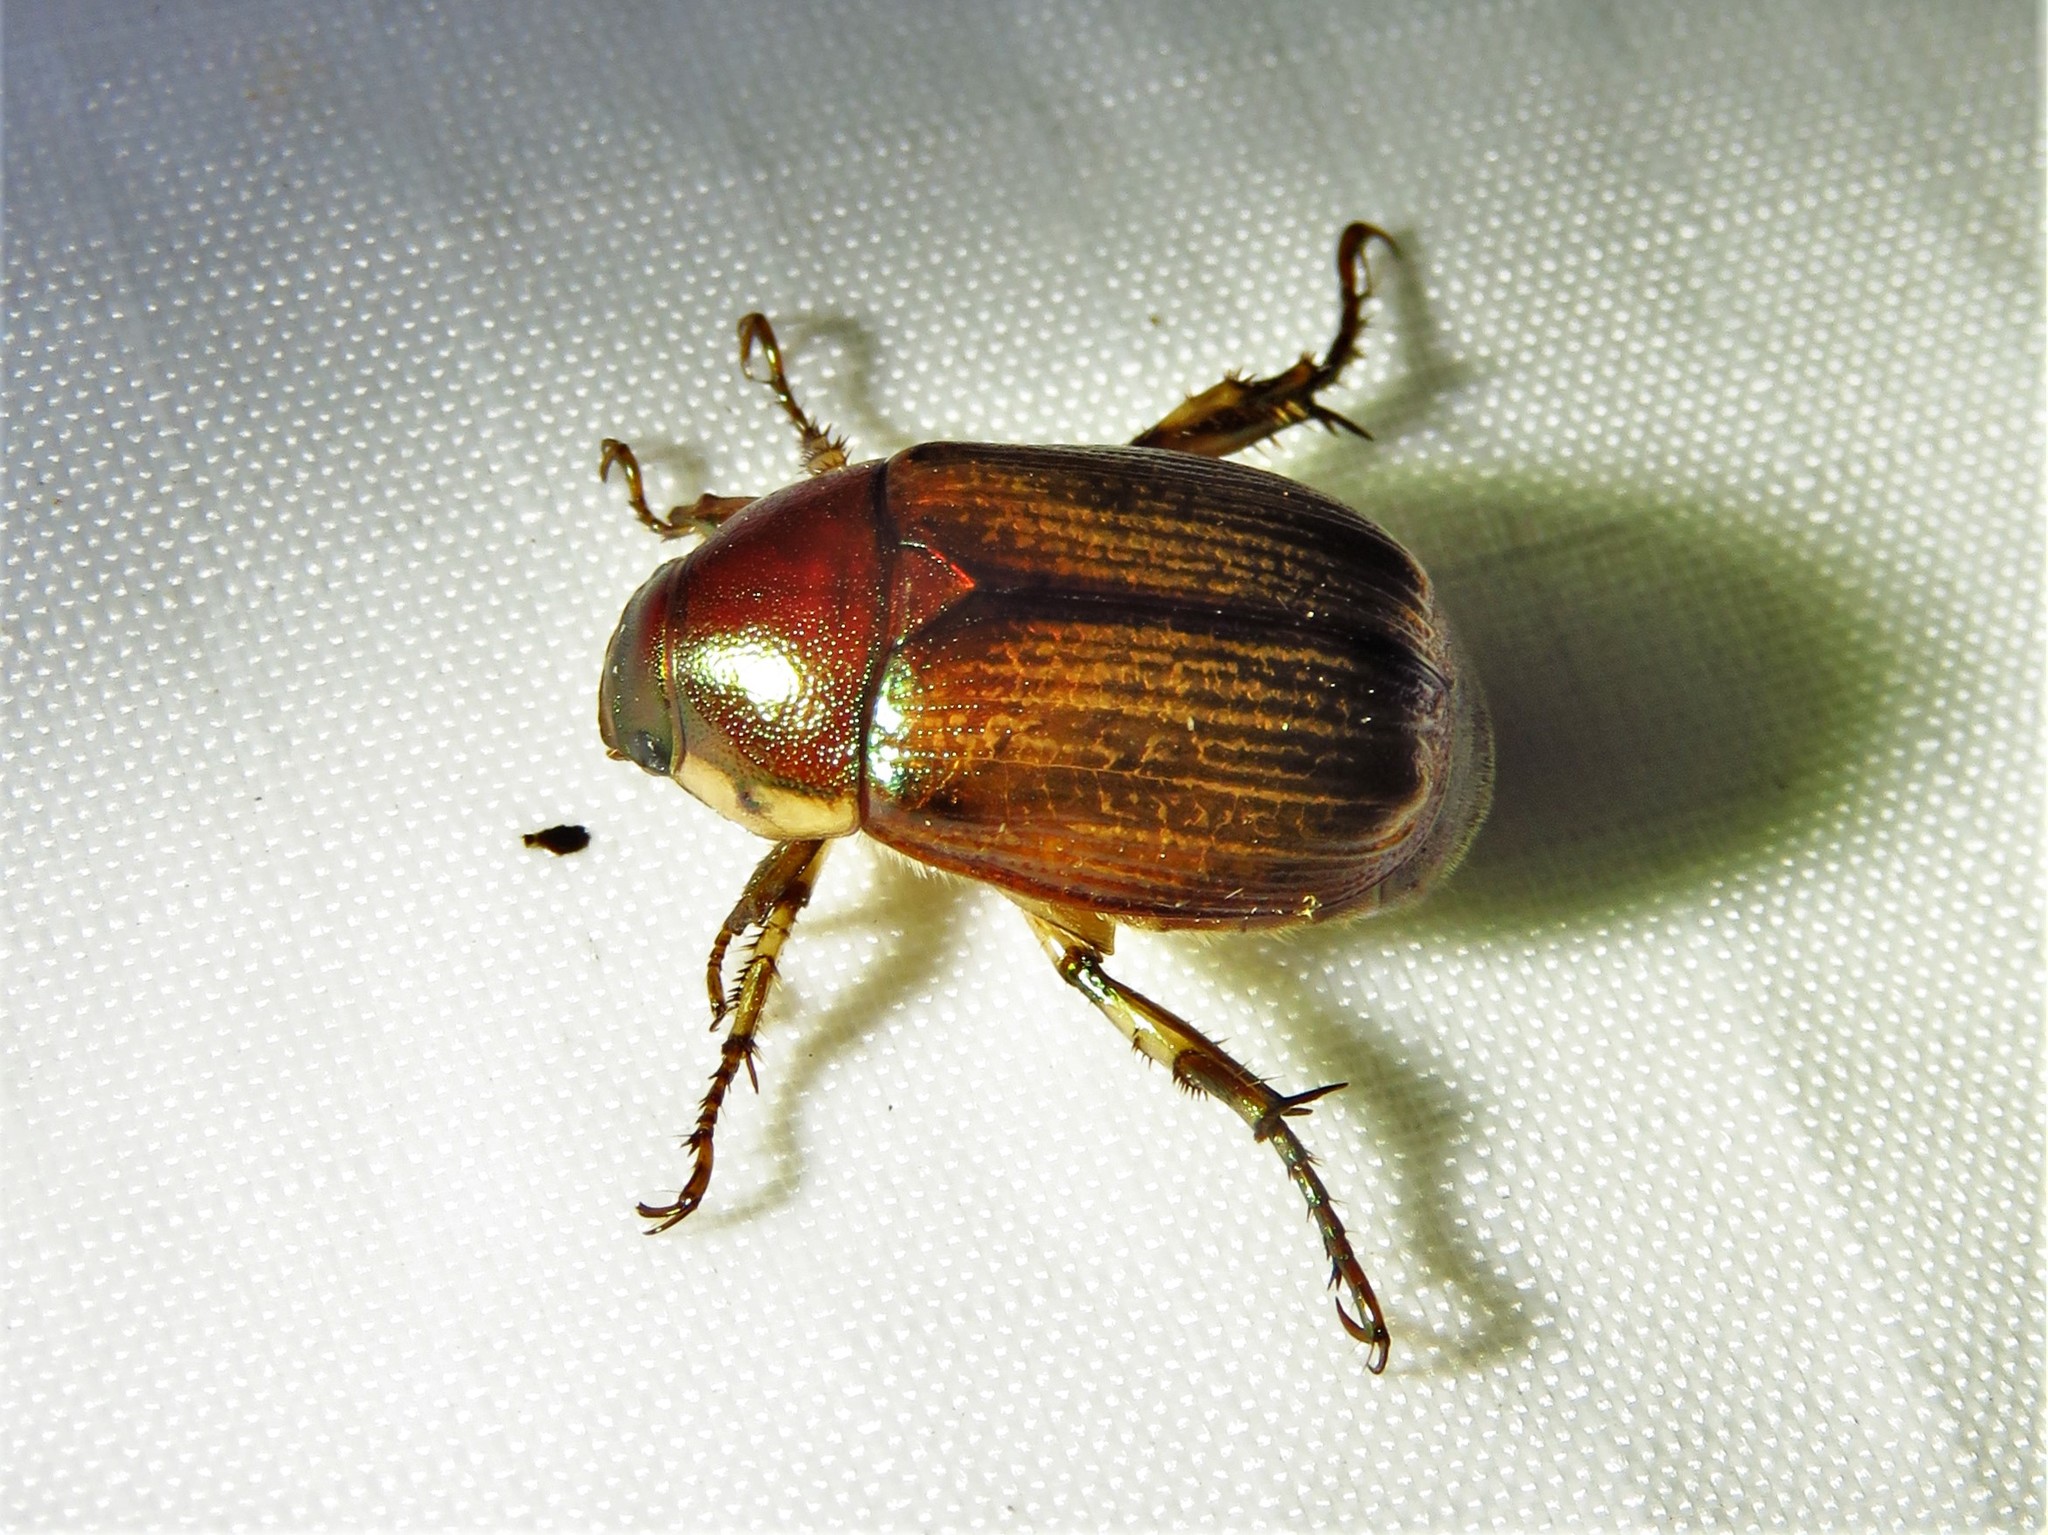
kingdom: Animalia
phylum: Arthropoda
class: Insecta
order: Coleoptera
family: Scarabaeidae
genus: Callistethus
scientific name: Callistethus marginatus
